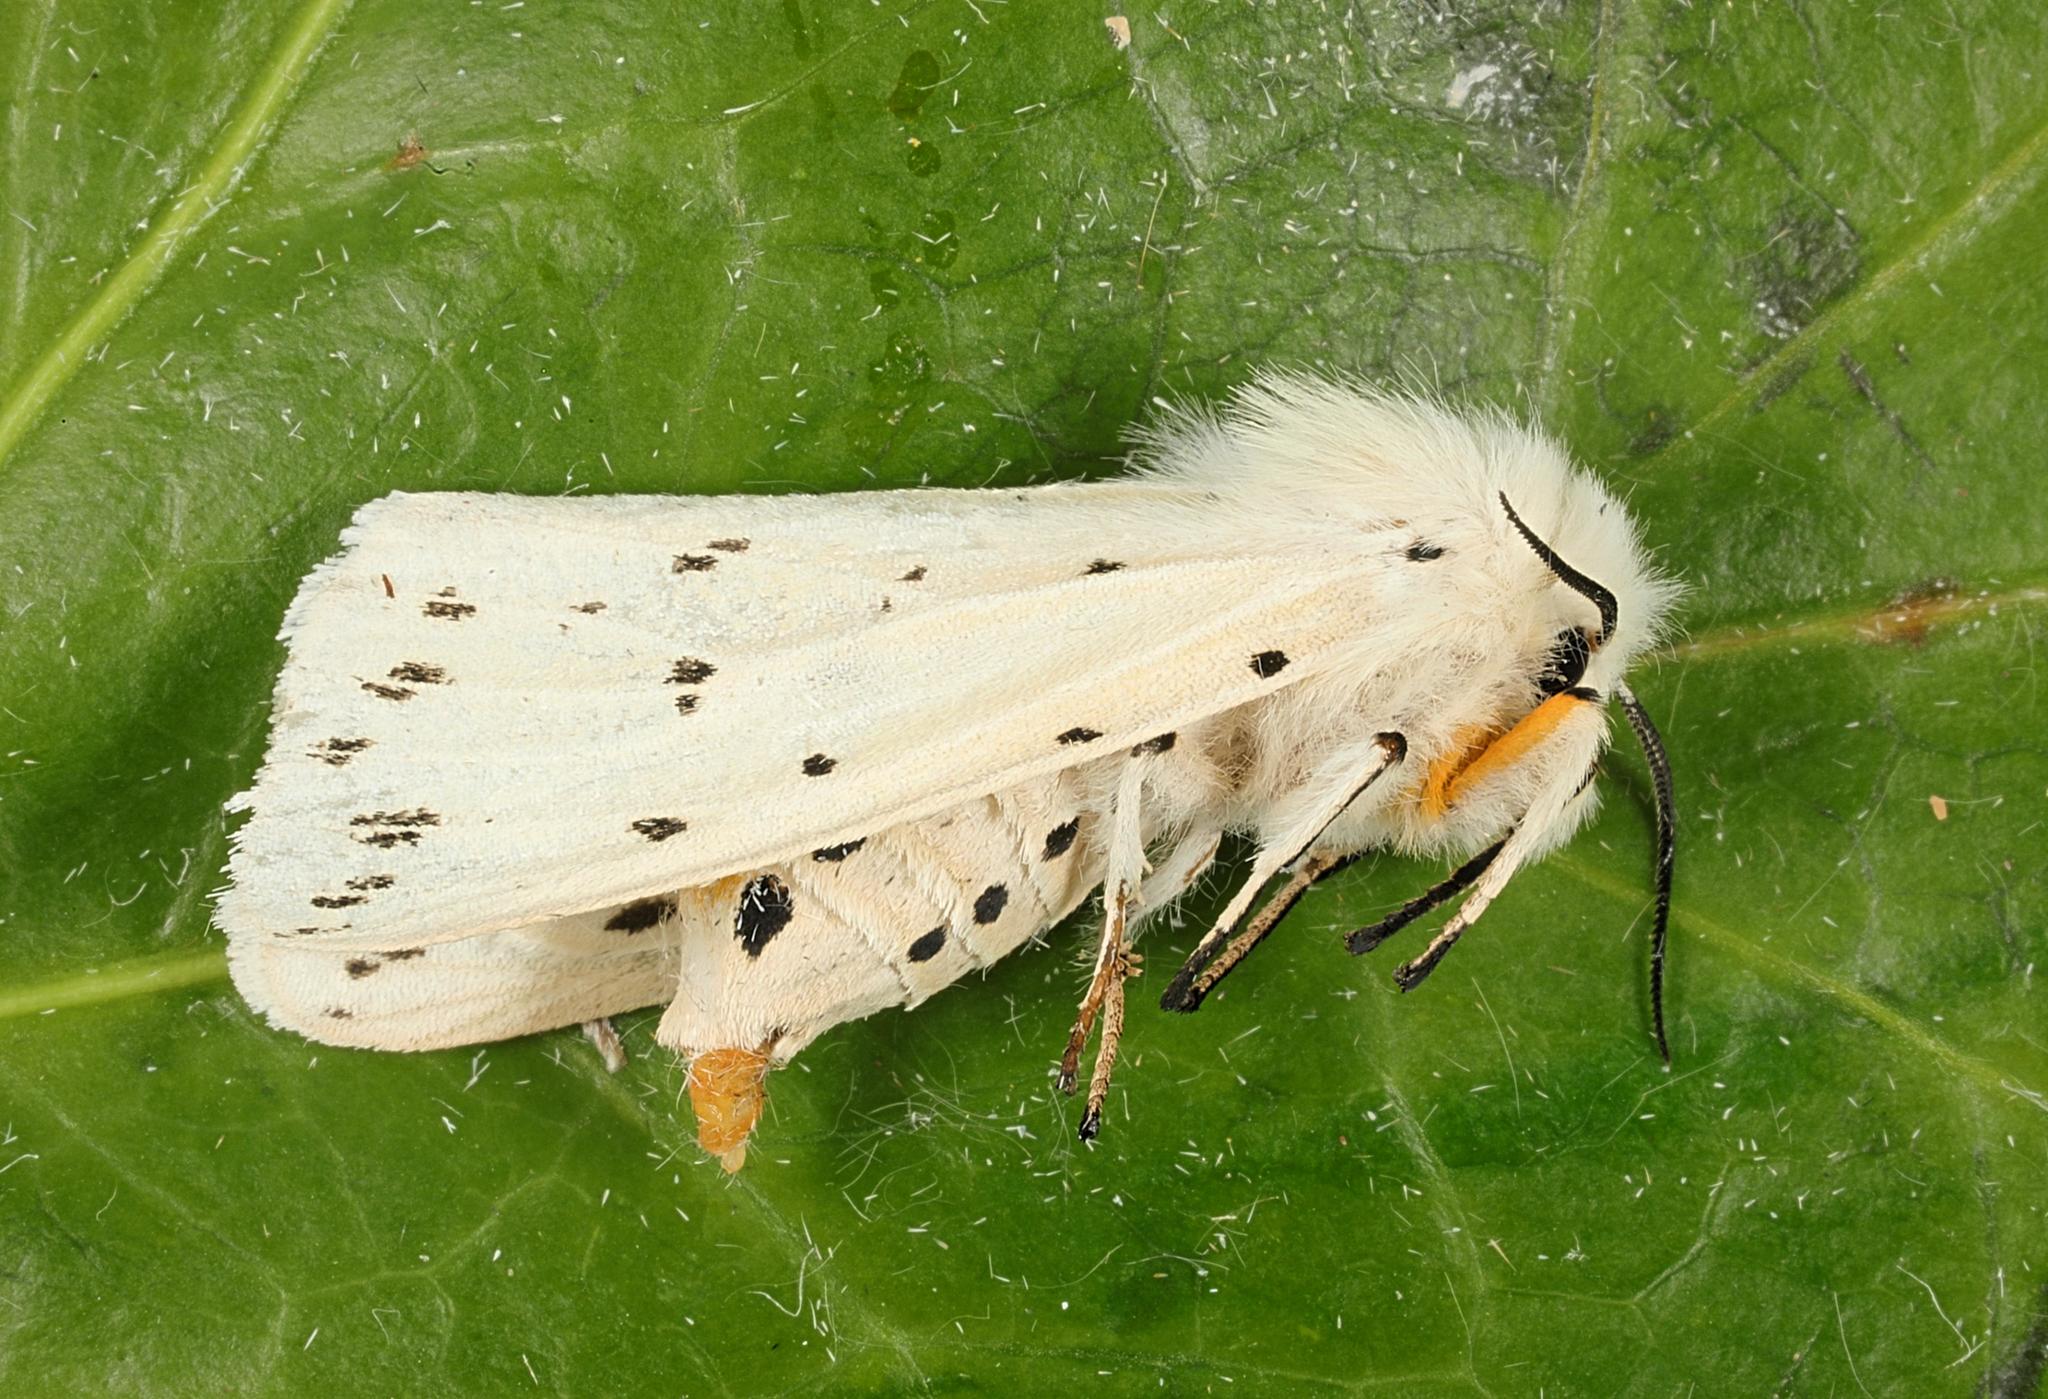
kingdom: Animalia
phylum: Arthropoda
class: Insecta
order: Lepidoptera
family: Erebidae
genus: Spilosoma
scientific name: Spilosoma lubricipeda
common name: White ermine
